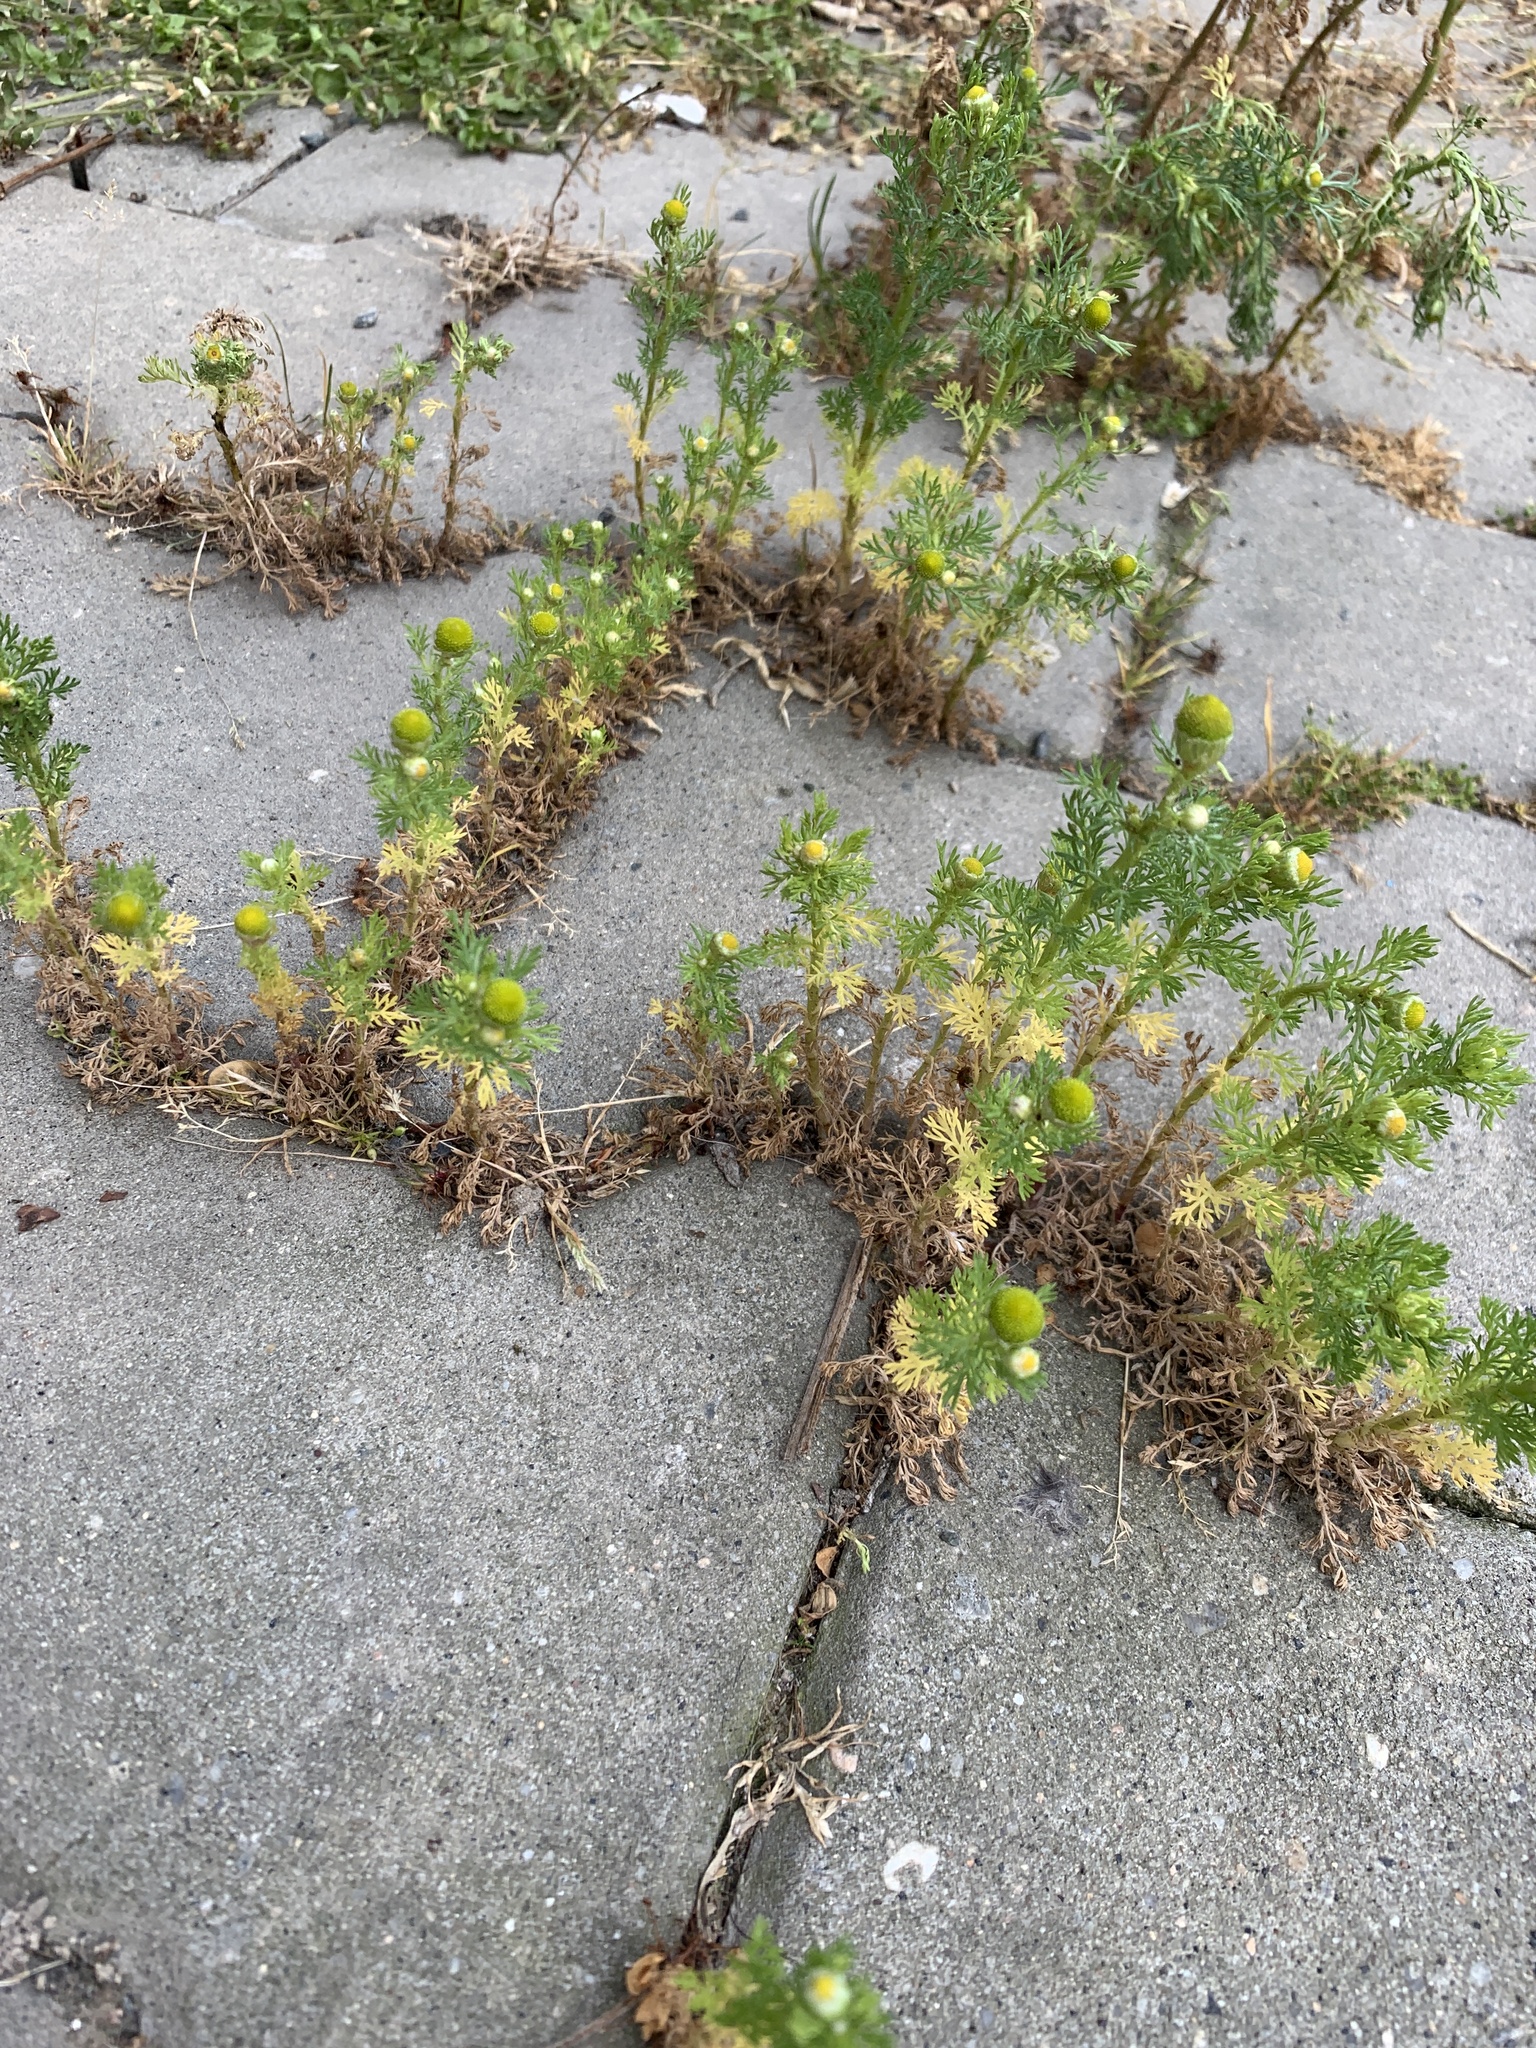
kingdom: Plantae
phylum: Tracheophyta
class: Magnoliopsida
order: Asterales
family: Asteraceae
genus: Matricaria
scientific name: Matricaria discoidea
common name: Disc mayweed
